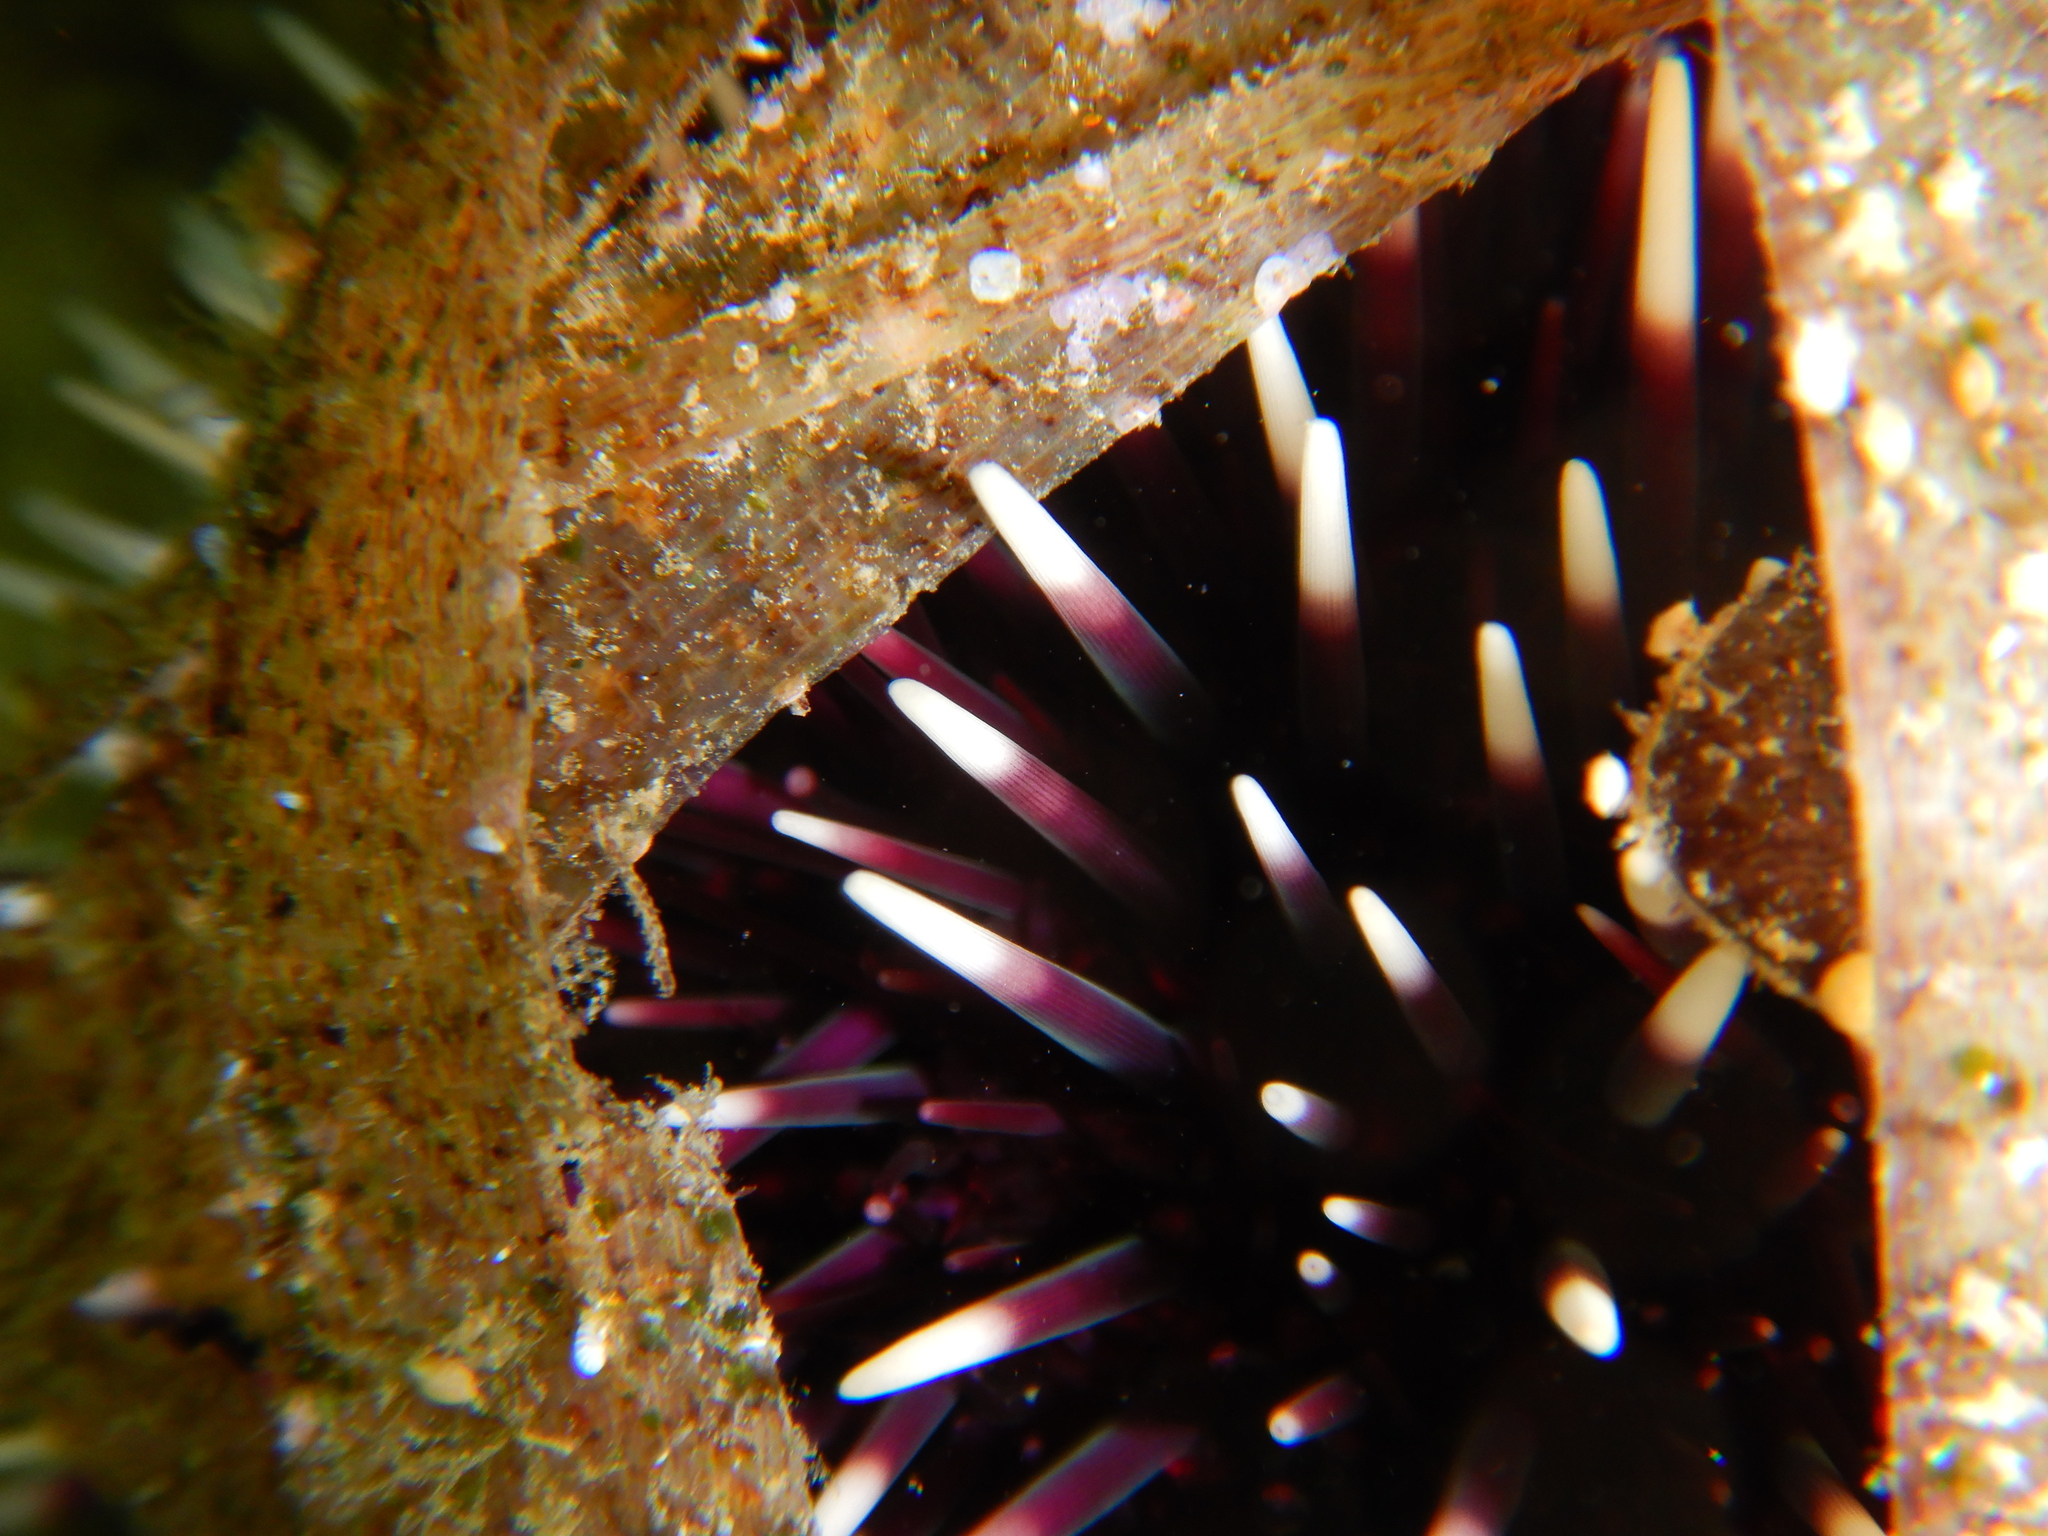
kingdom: Animalia
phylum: Echinodermata
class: Echinoidea
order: Camarodonta
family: Toxopneustidae
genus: Sphaerechinus
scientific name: Sphaerechinus granularis
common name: Violet sea urchin
